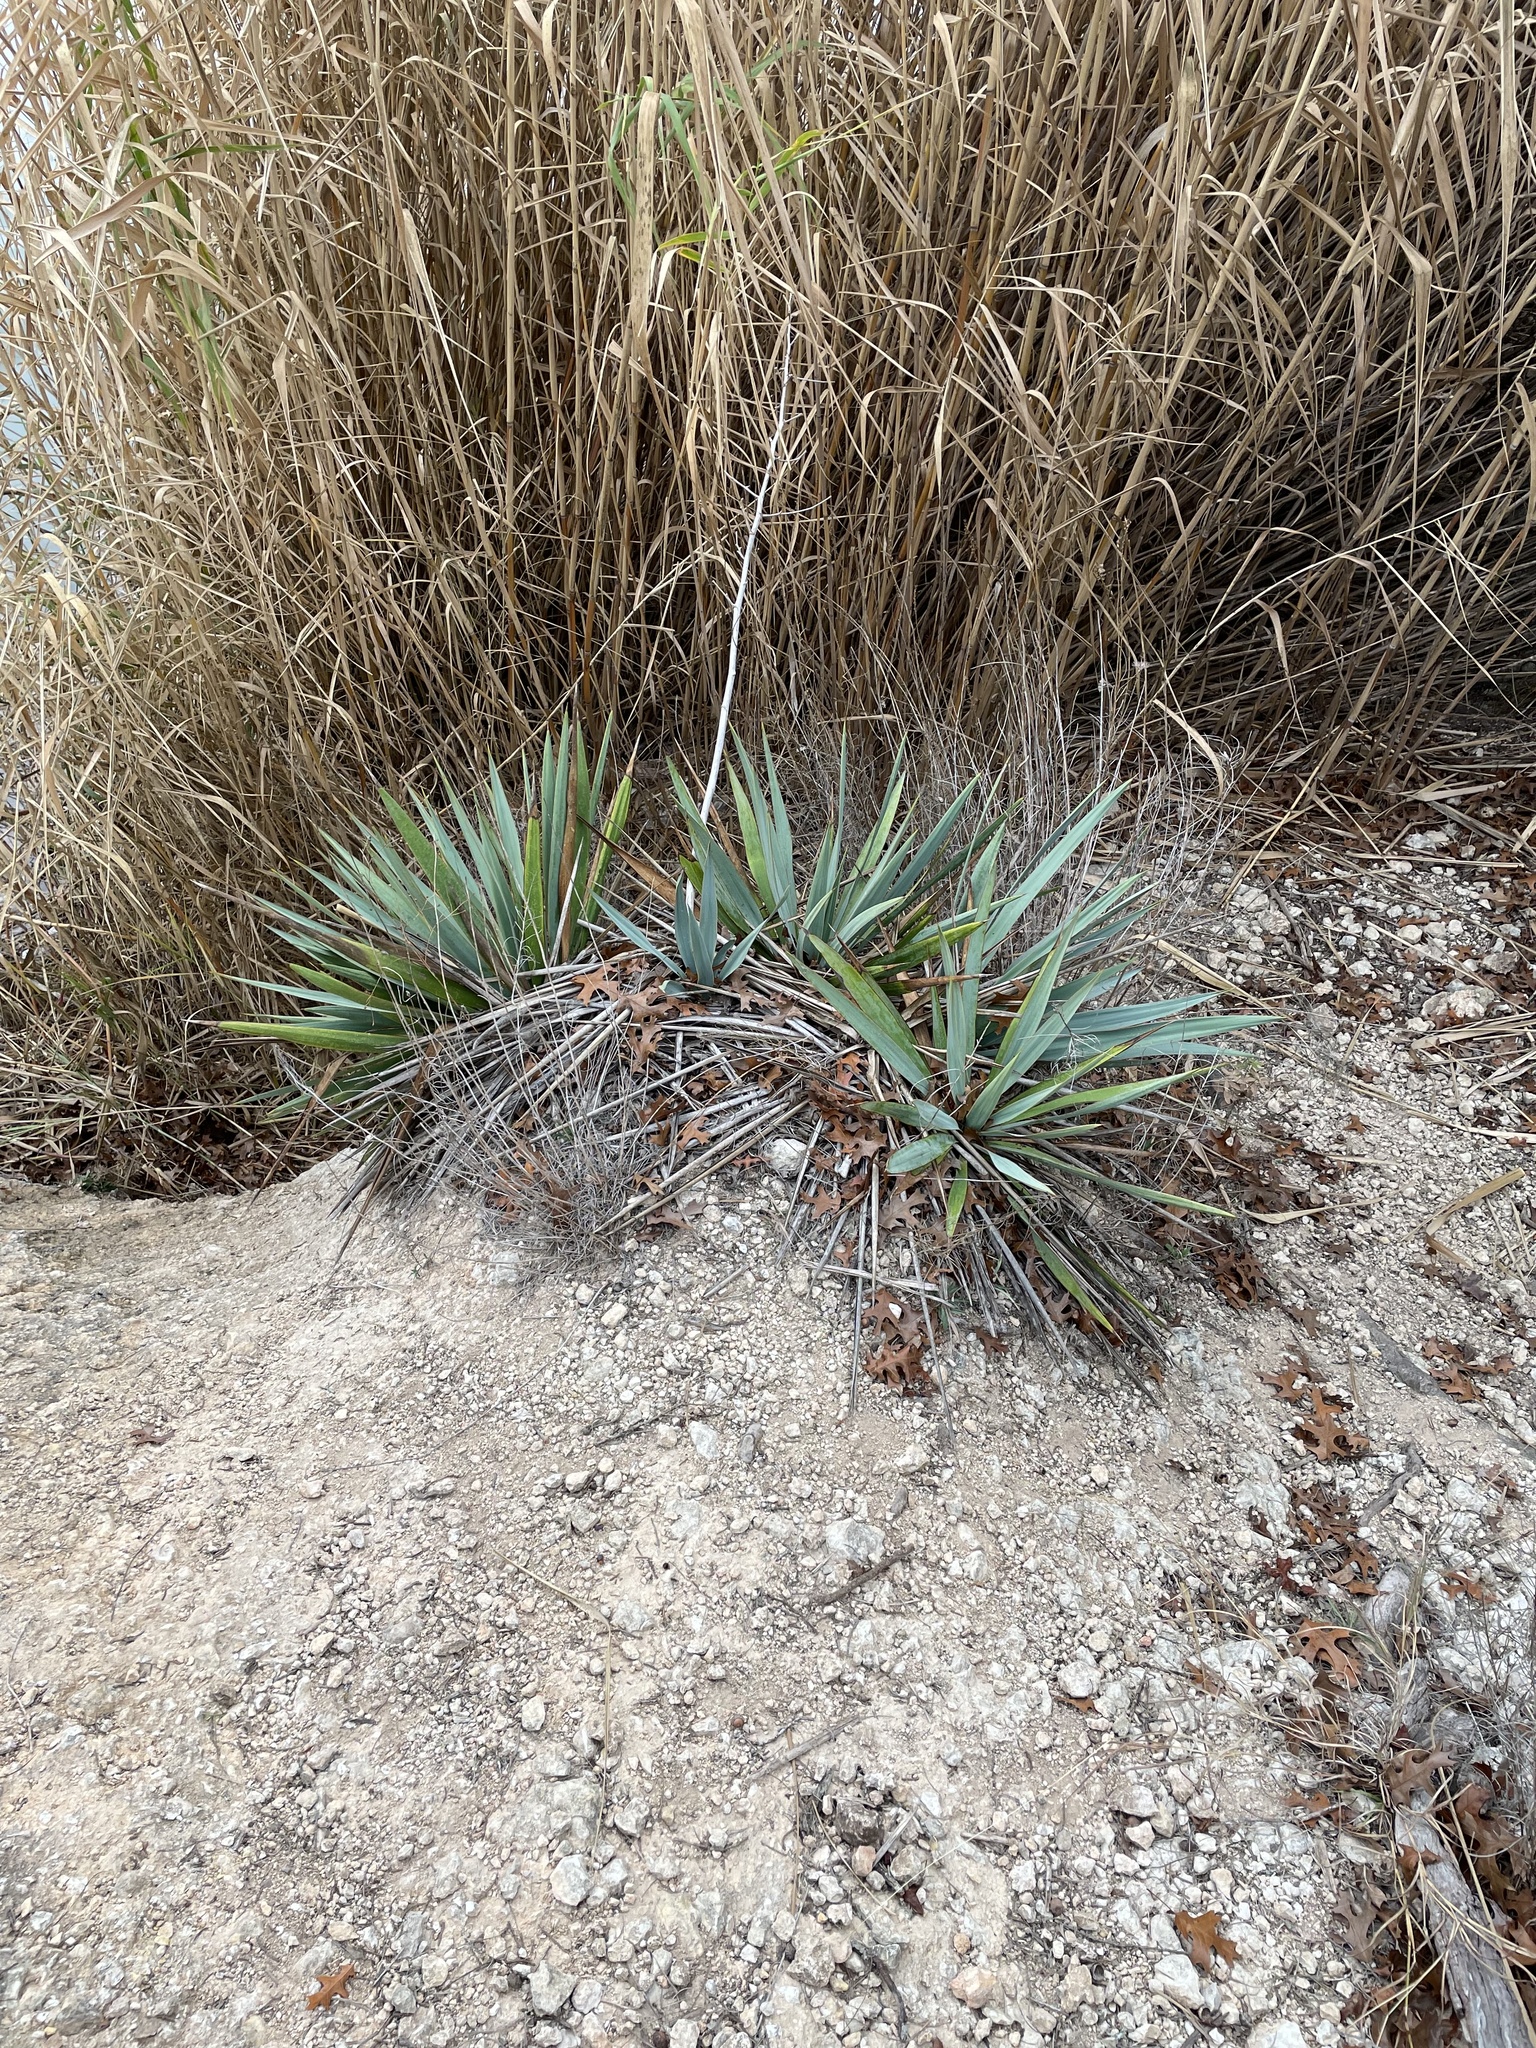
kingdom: Plantae
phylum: Tracheophyta
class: Liliopsida
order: Asparagales
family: Asparagaceae
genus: Yucca
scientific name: Yucca pallida
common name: Pale leaf yucca
